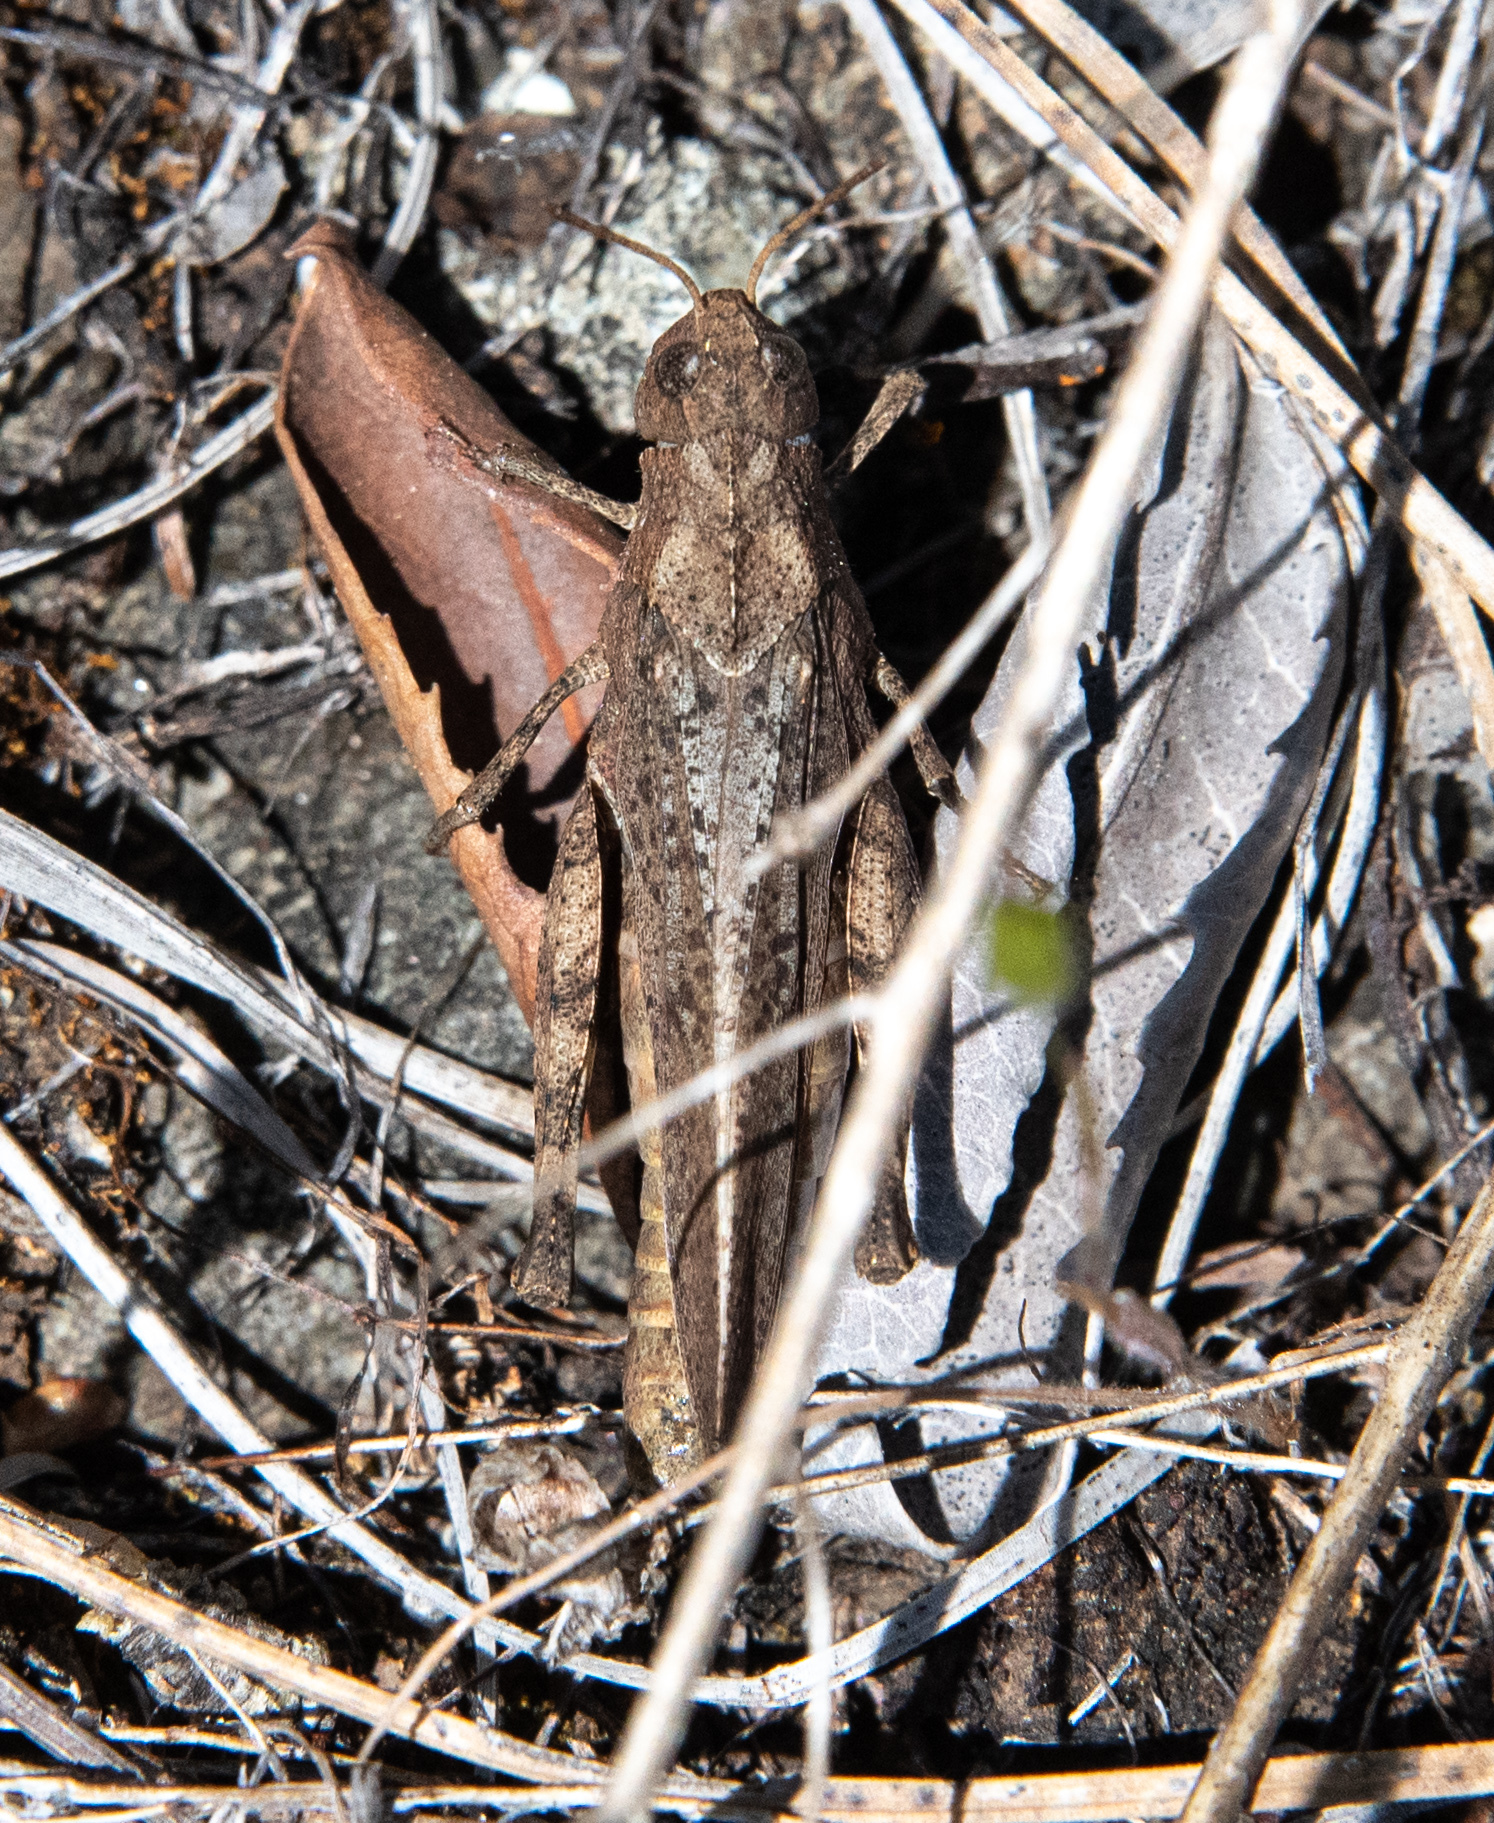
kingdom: Animalia
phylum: Arthropoda
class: Insecta
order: Orthoptera
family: Acrididae
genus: Arphia
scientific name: Arphia behrensi
